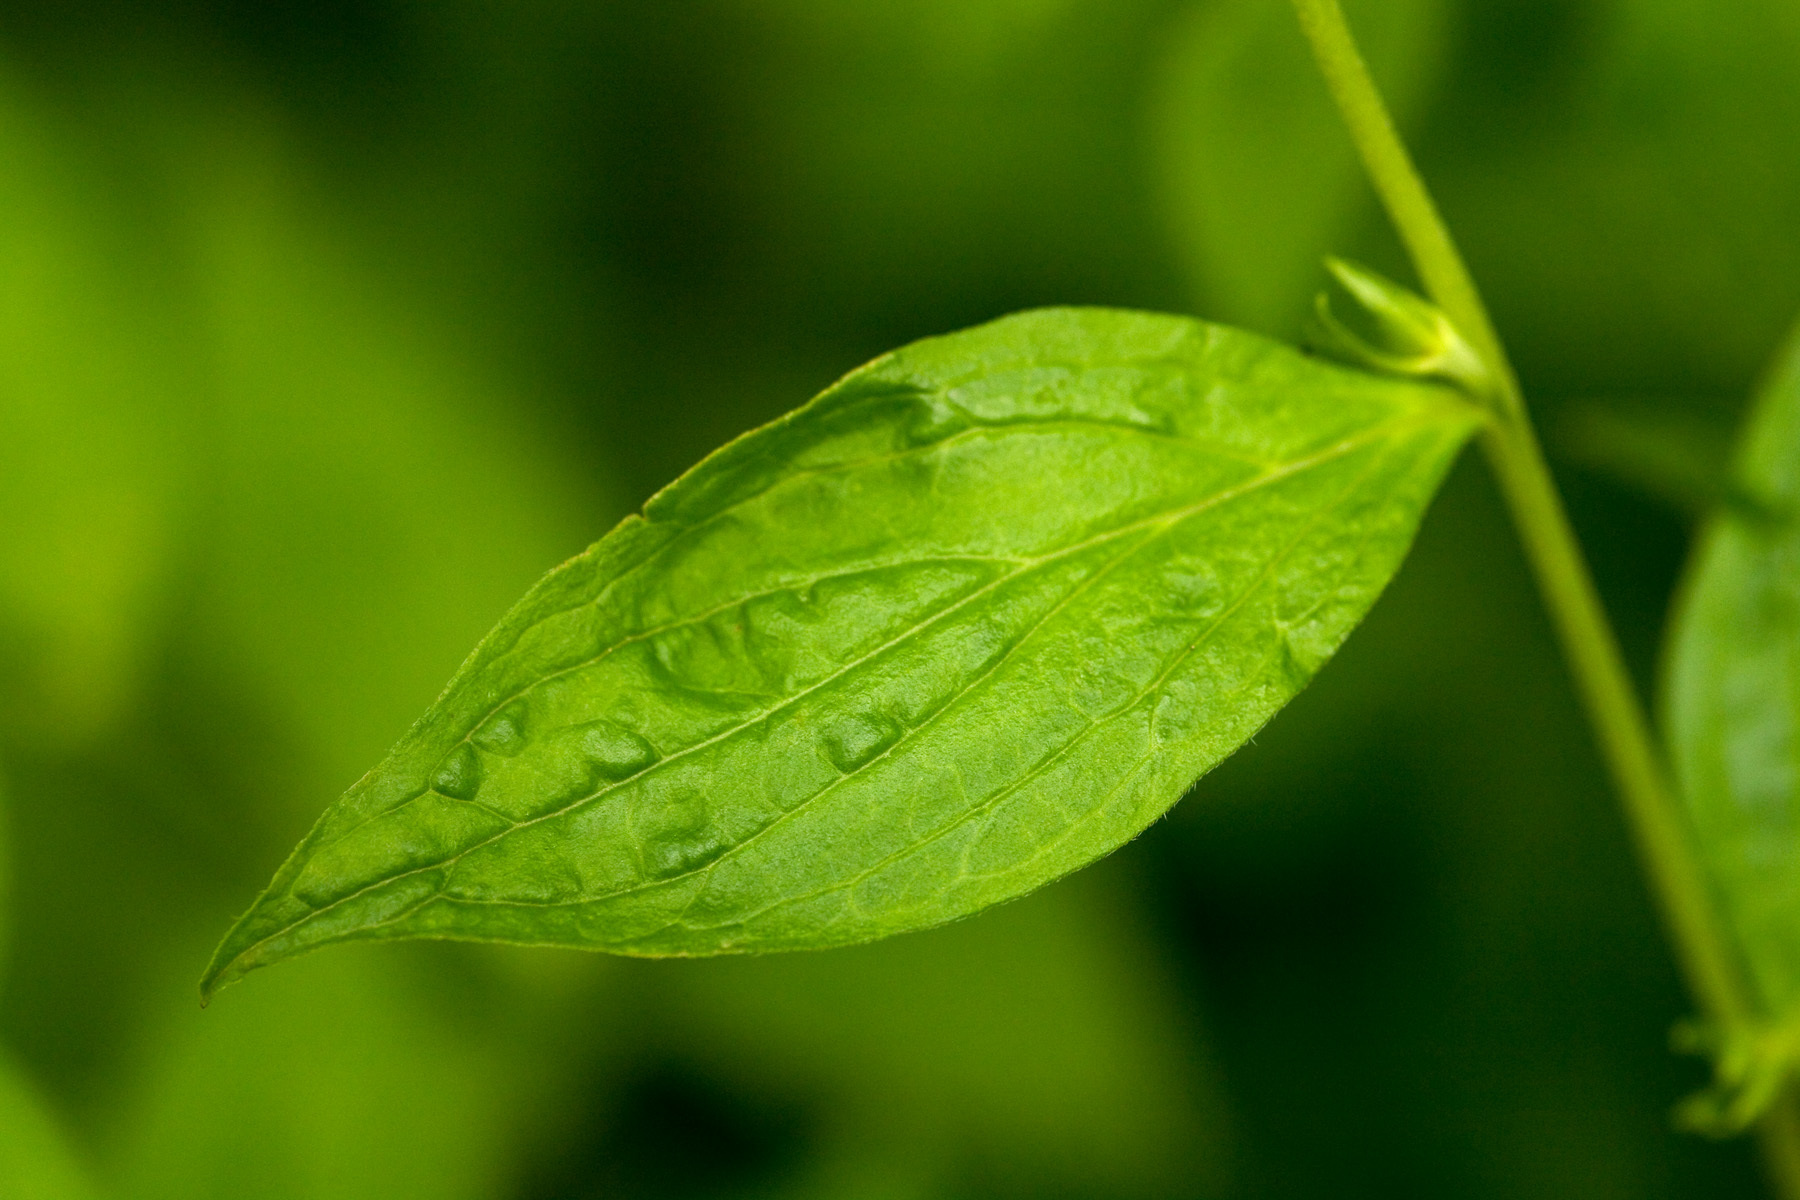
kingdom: Plantae
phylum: Tracheophyta
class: Magnoliopsida
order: Boraginales
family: Boraginaceae
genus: Lithospermum
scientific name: Lithospermum latifolium
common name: American gromwell
